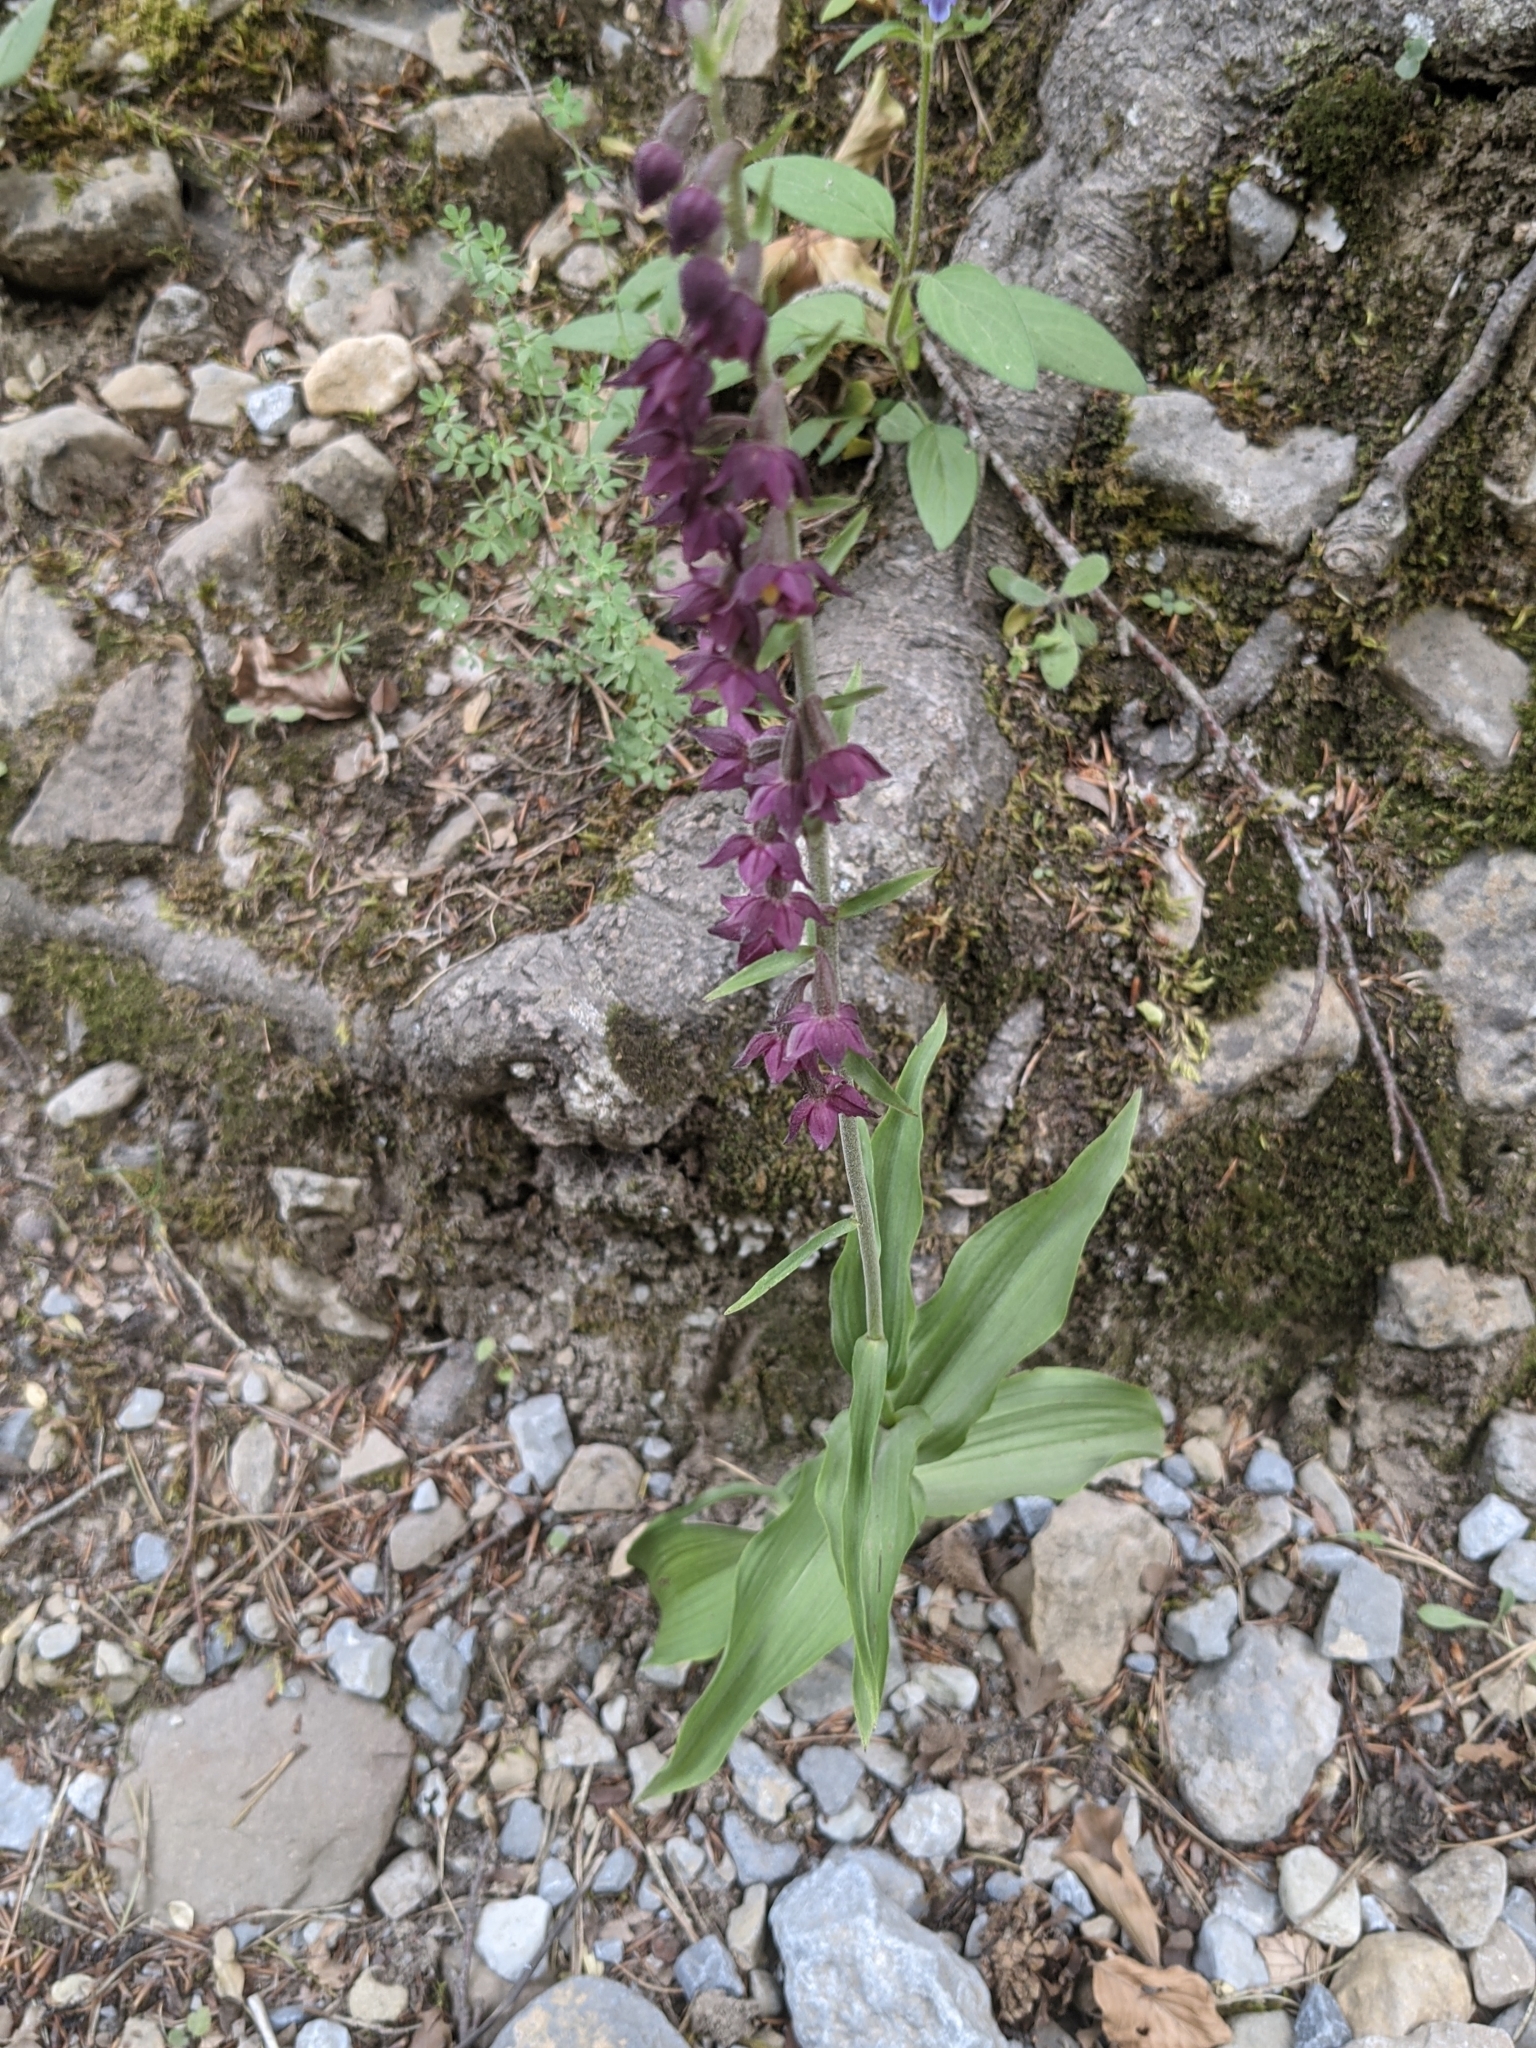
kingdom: Plantae
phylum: Tracheophyta
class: Liliopsida
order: Asparagales
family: Orchidaceae
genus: Epipactis
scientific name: Epipactis atrorubens
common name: Dark-red helleborine
